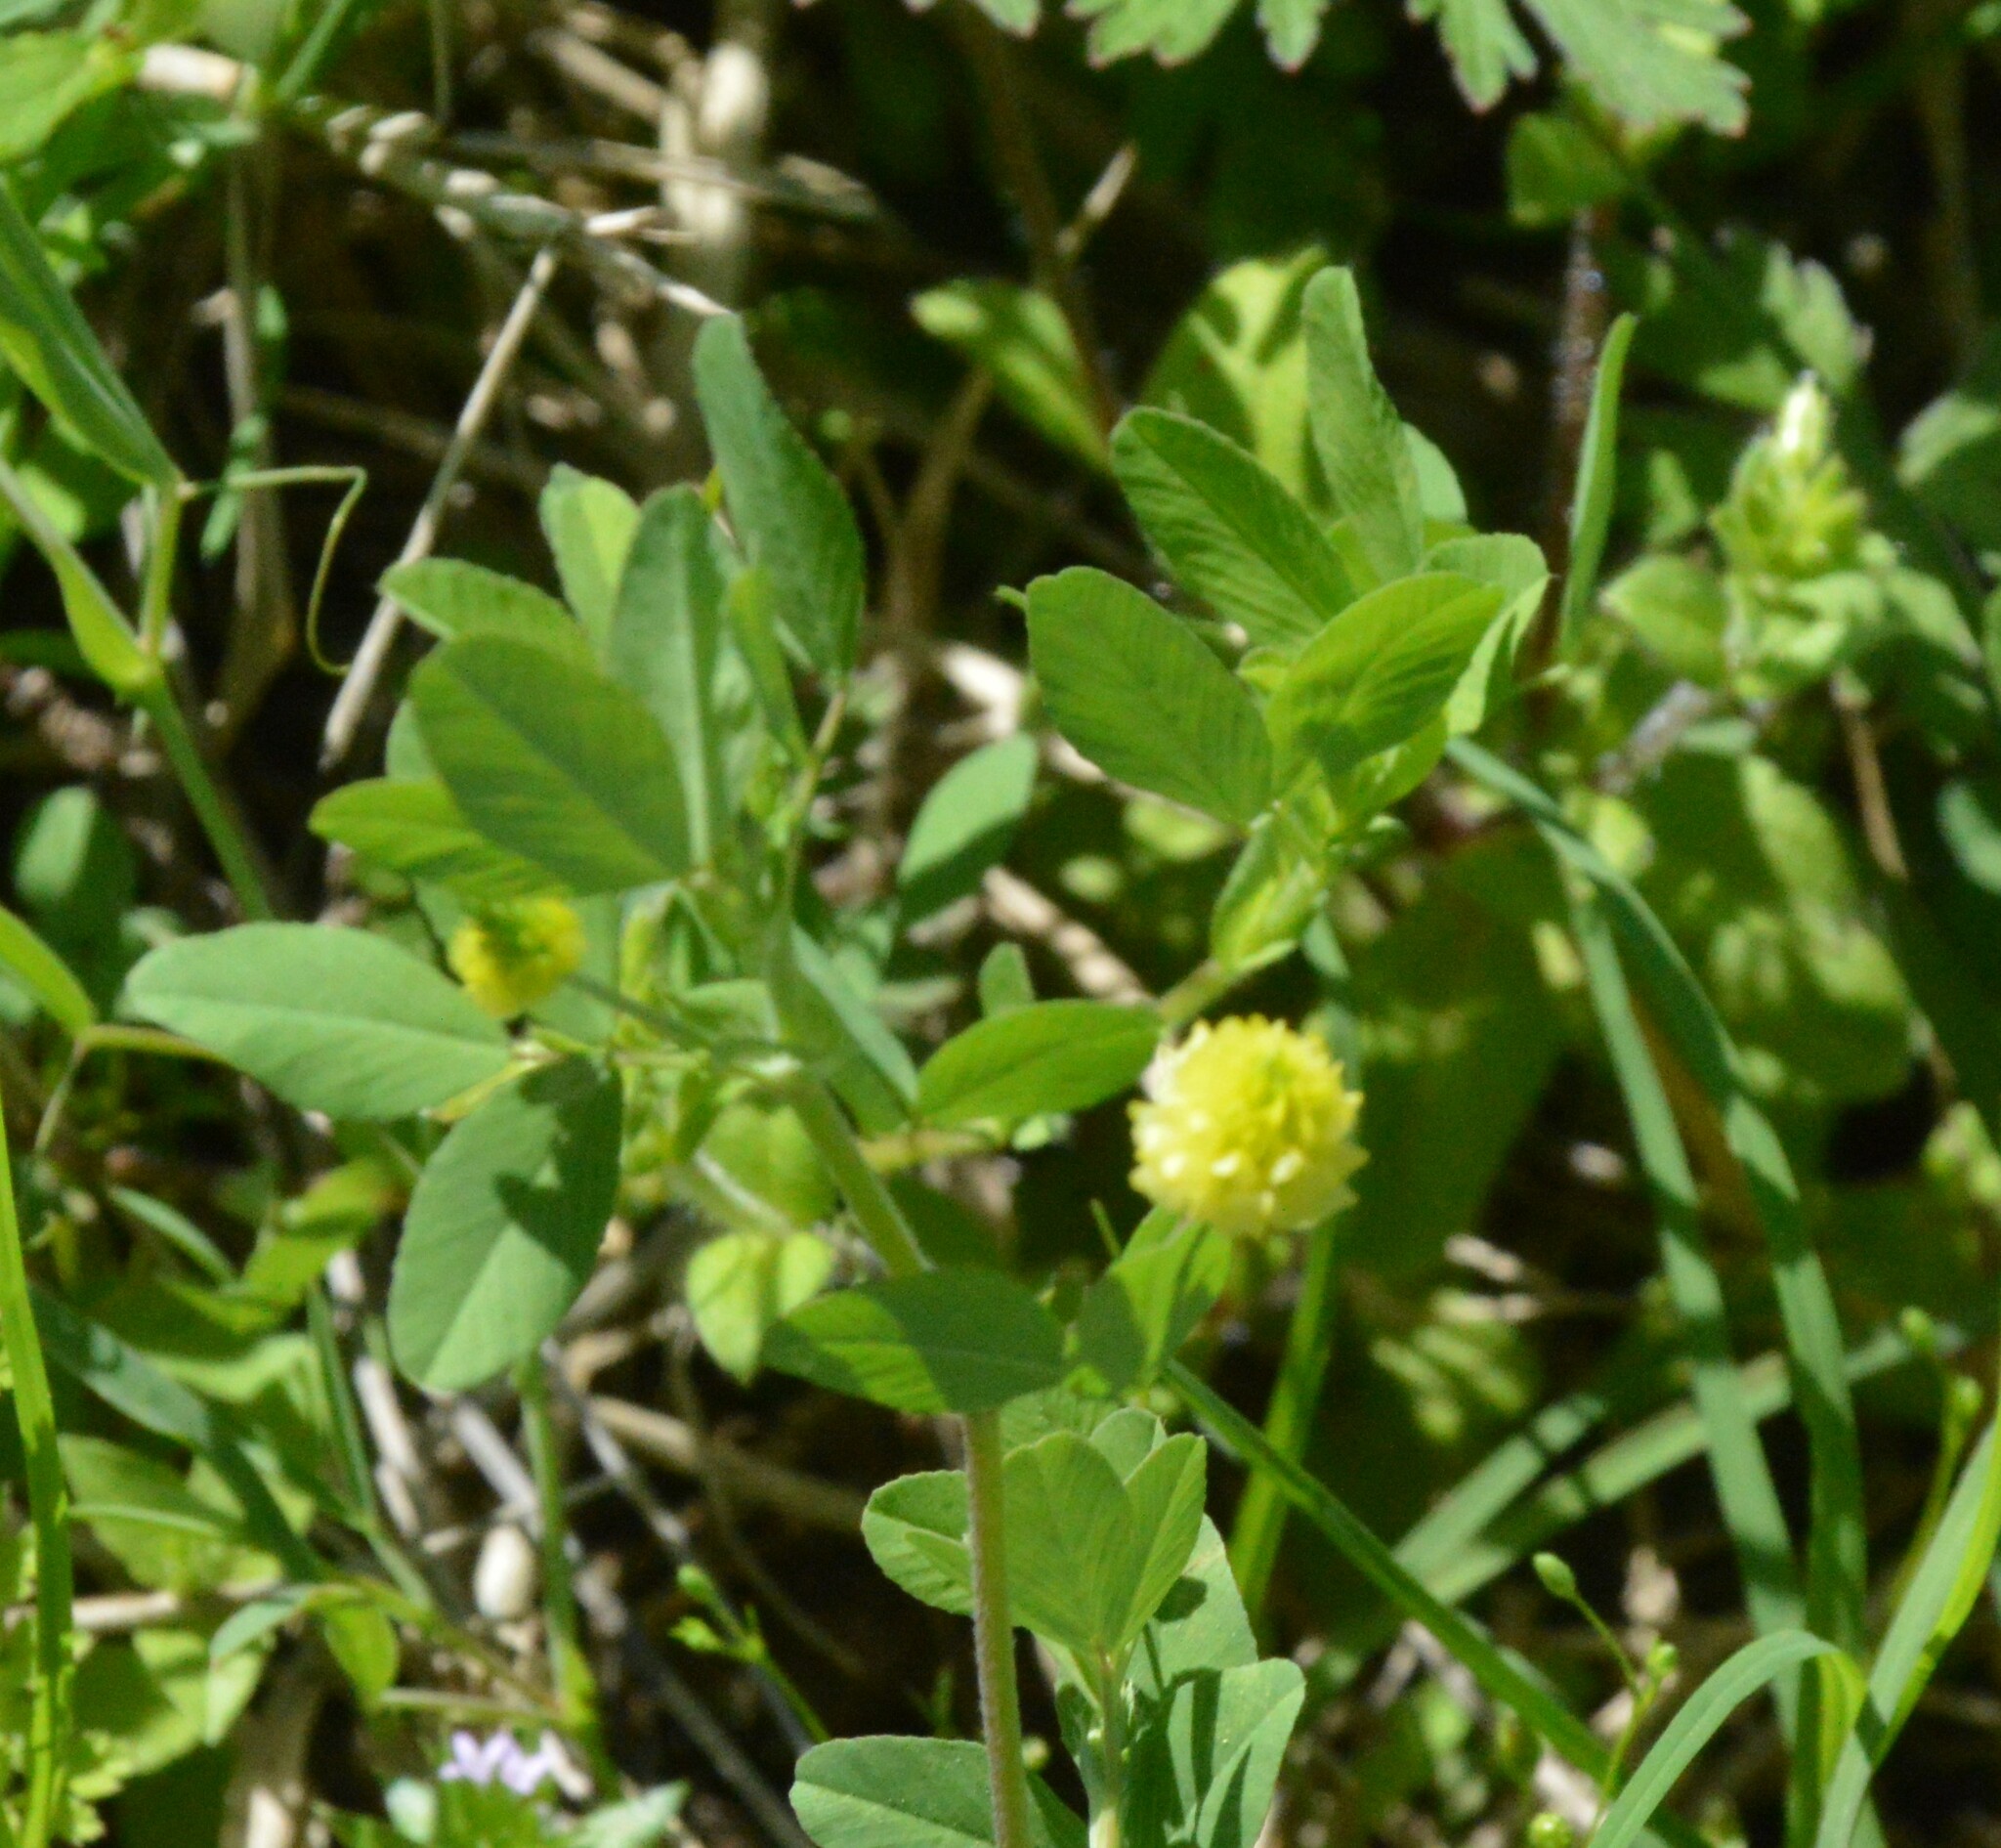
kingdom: Plantae
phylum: Tracheophyta
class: Magnoliopsida
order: Fabales
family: Fabaceae
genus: Trifolium
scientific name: Trifolium campestre
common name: Field clover
